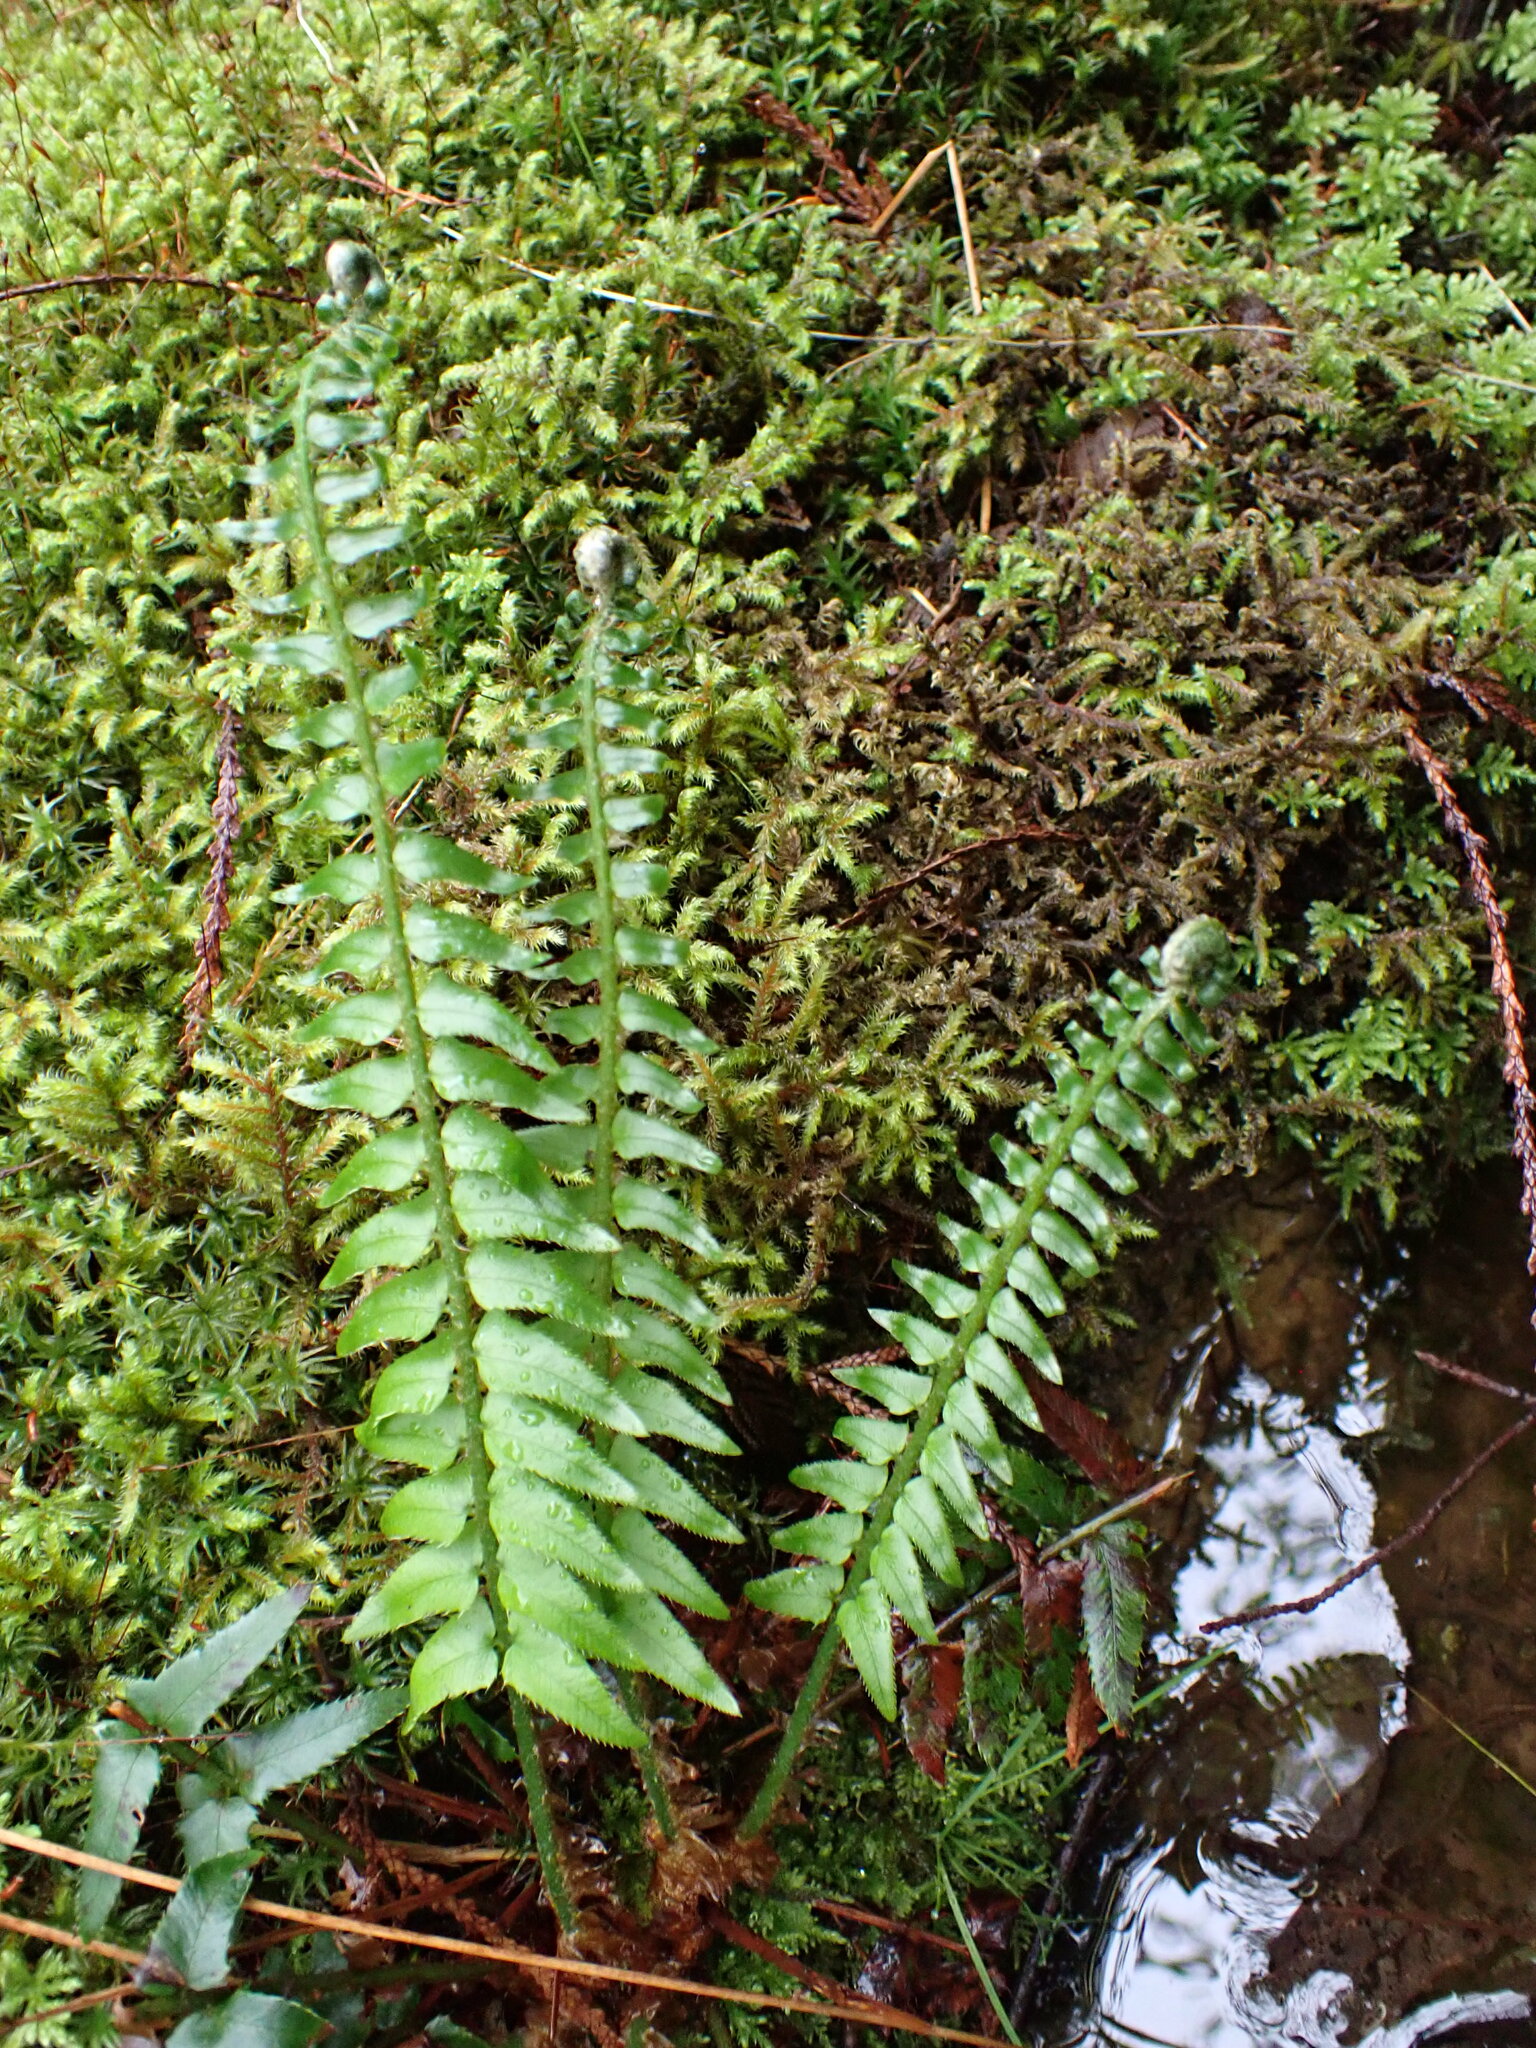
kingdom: Plantae
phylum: Tracheophyta
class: Polypodiopsida
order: Polypodiales
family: Dryopteridaceae
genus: Polystichum
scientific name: Polystichum munitum
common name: Western sword-fern
